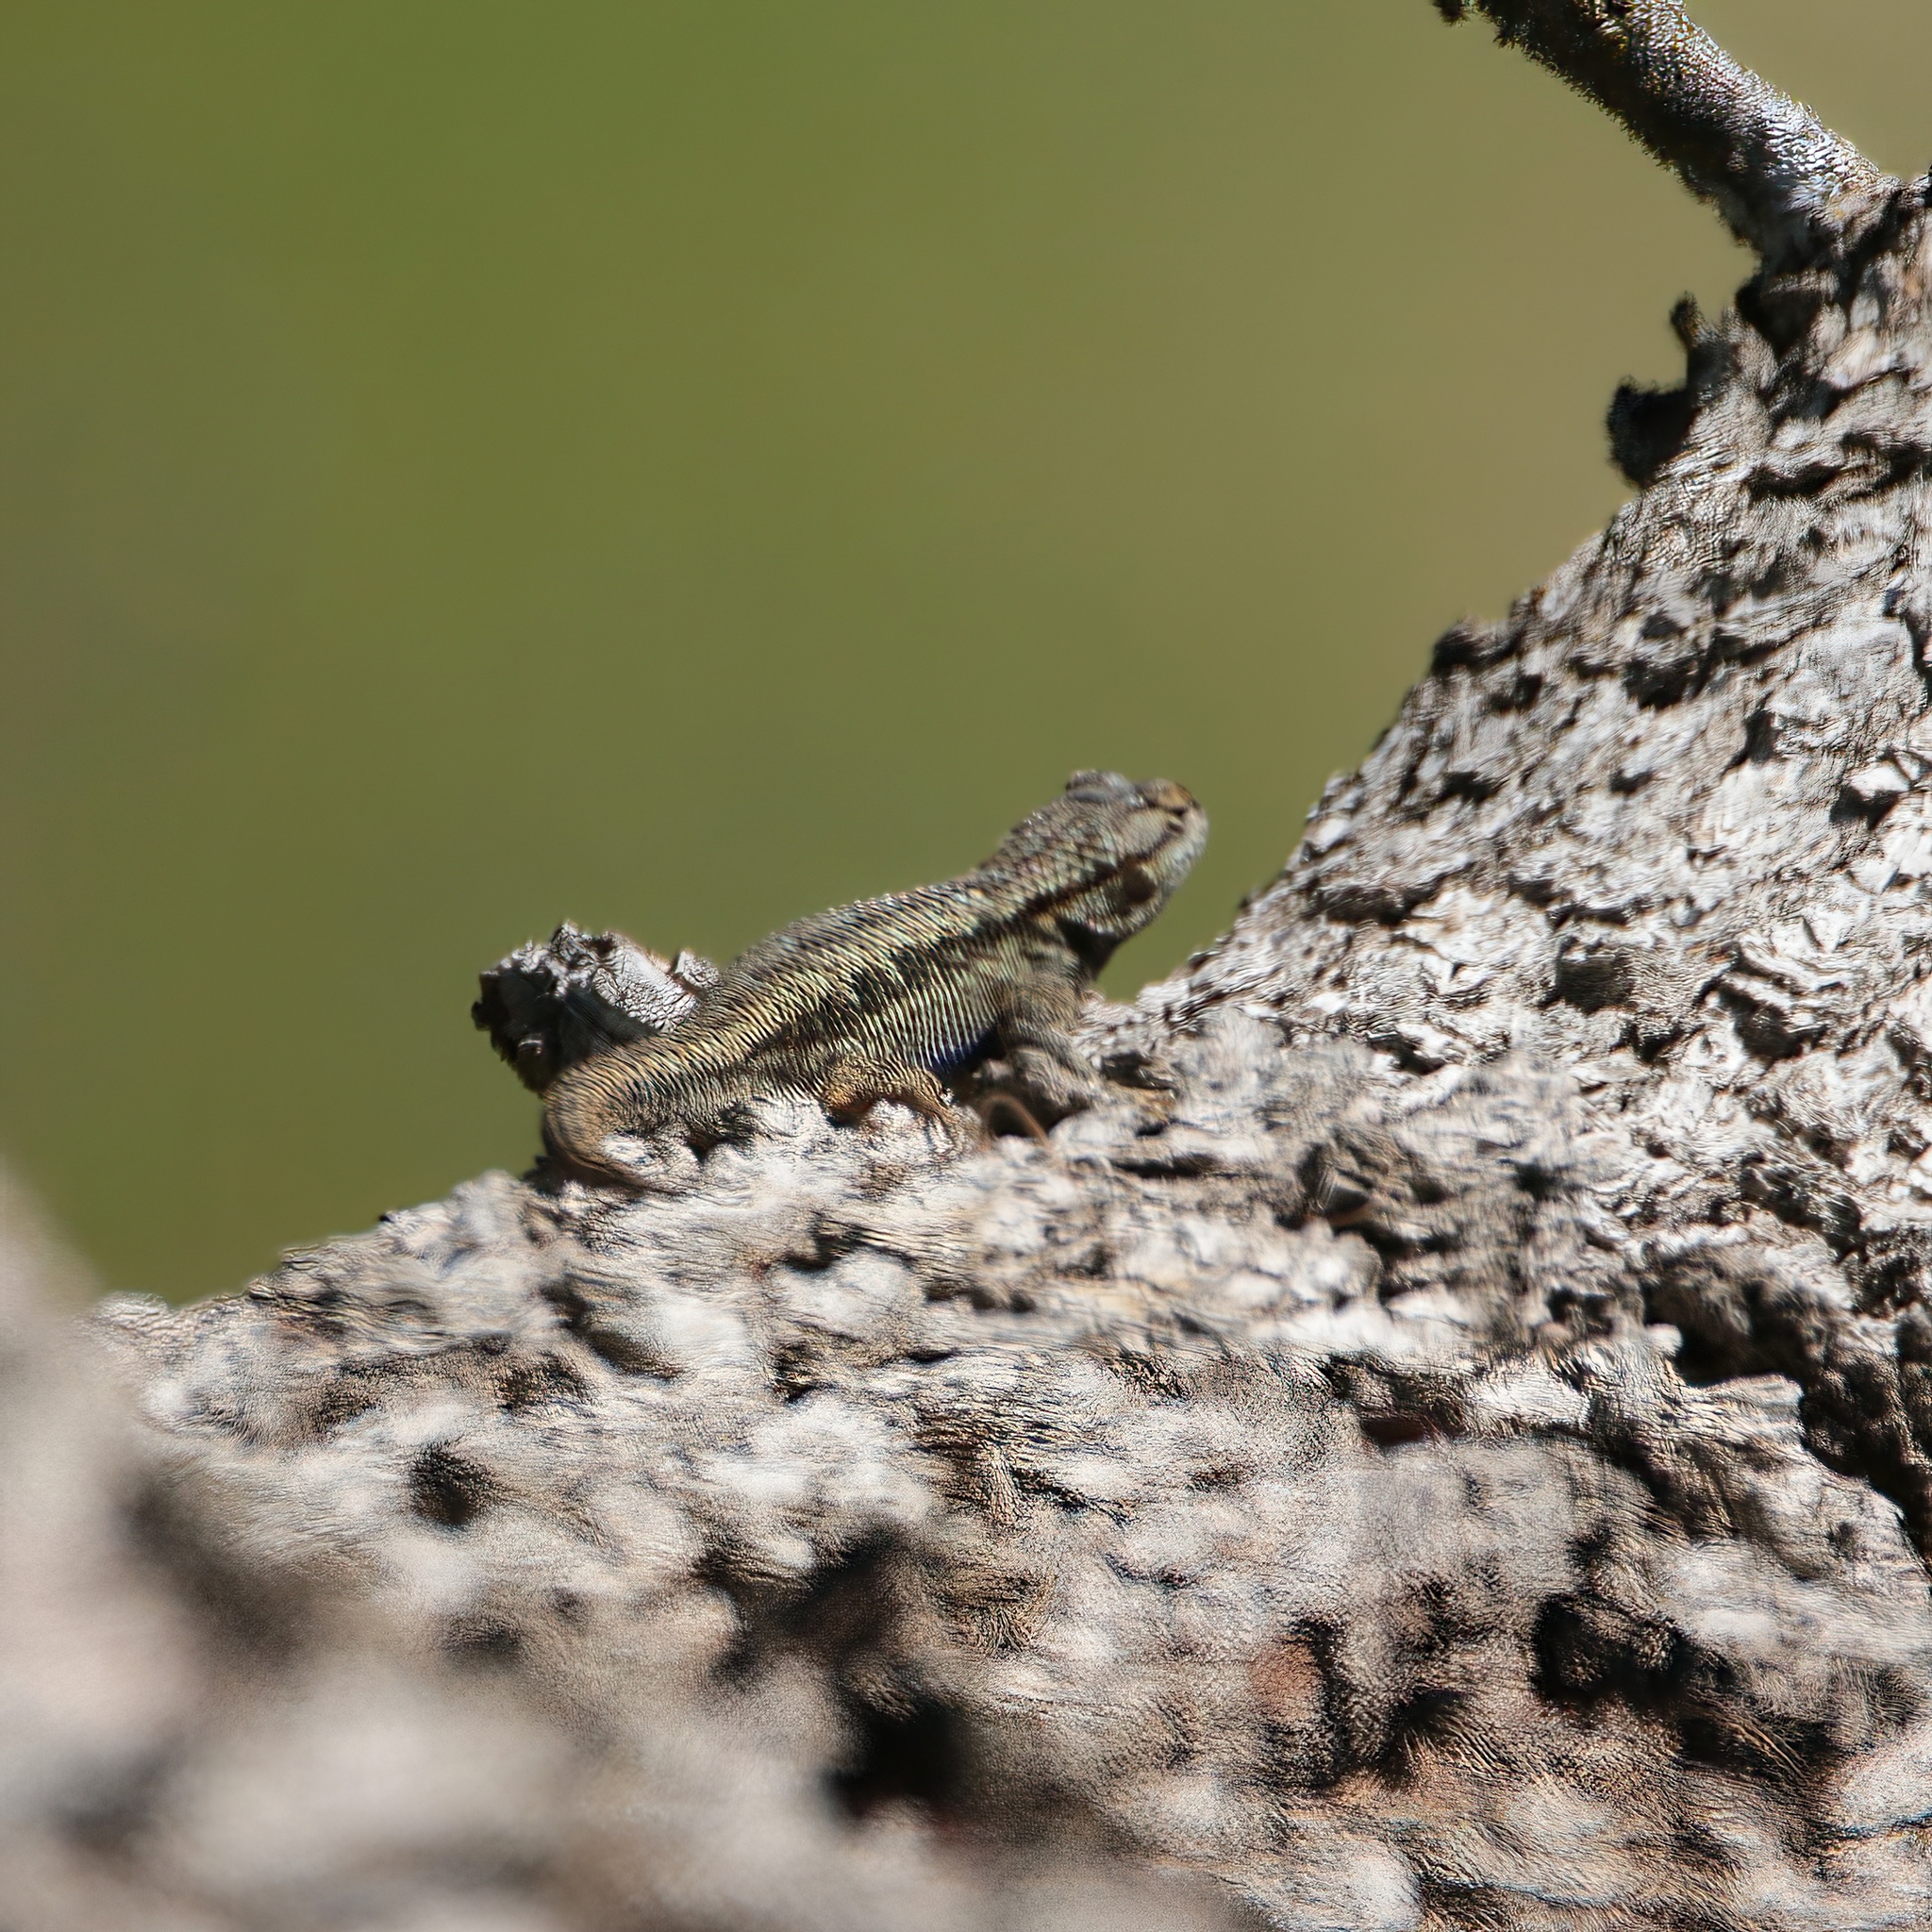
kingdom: Animalia
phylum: Chordata
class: Squamata
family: Phrynosomatidae
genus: Sceloporus
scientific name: Sceloporus occidentalis
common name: Western fence lizard
